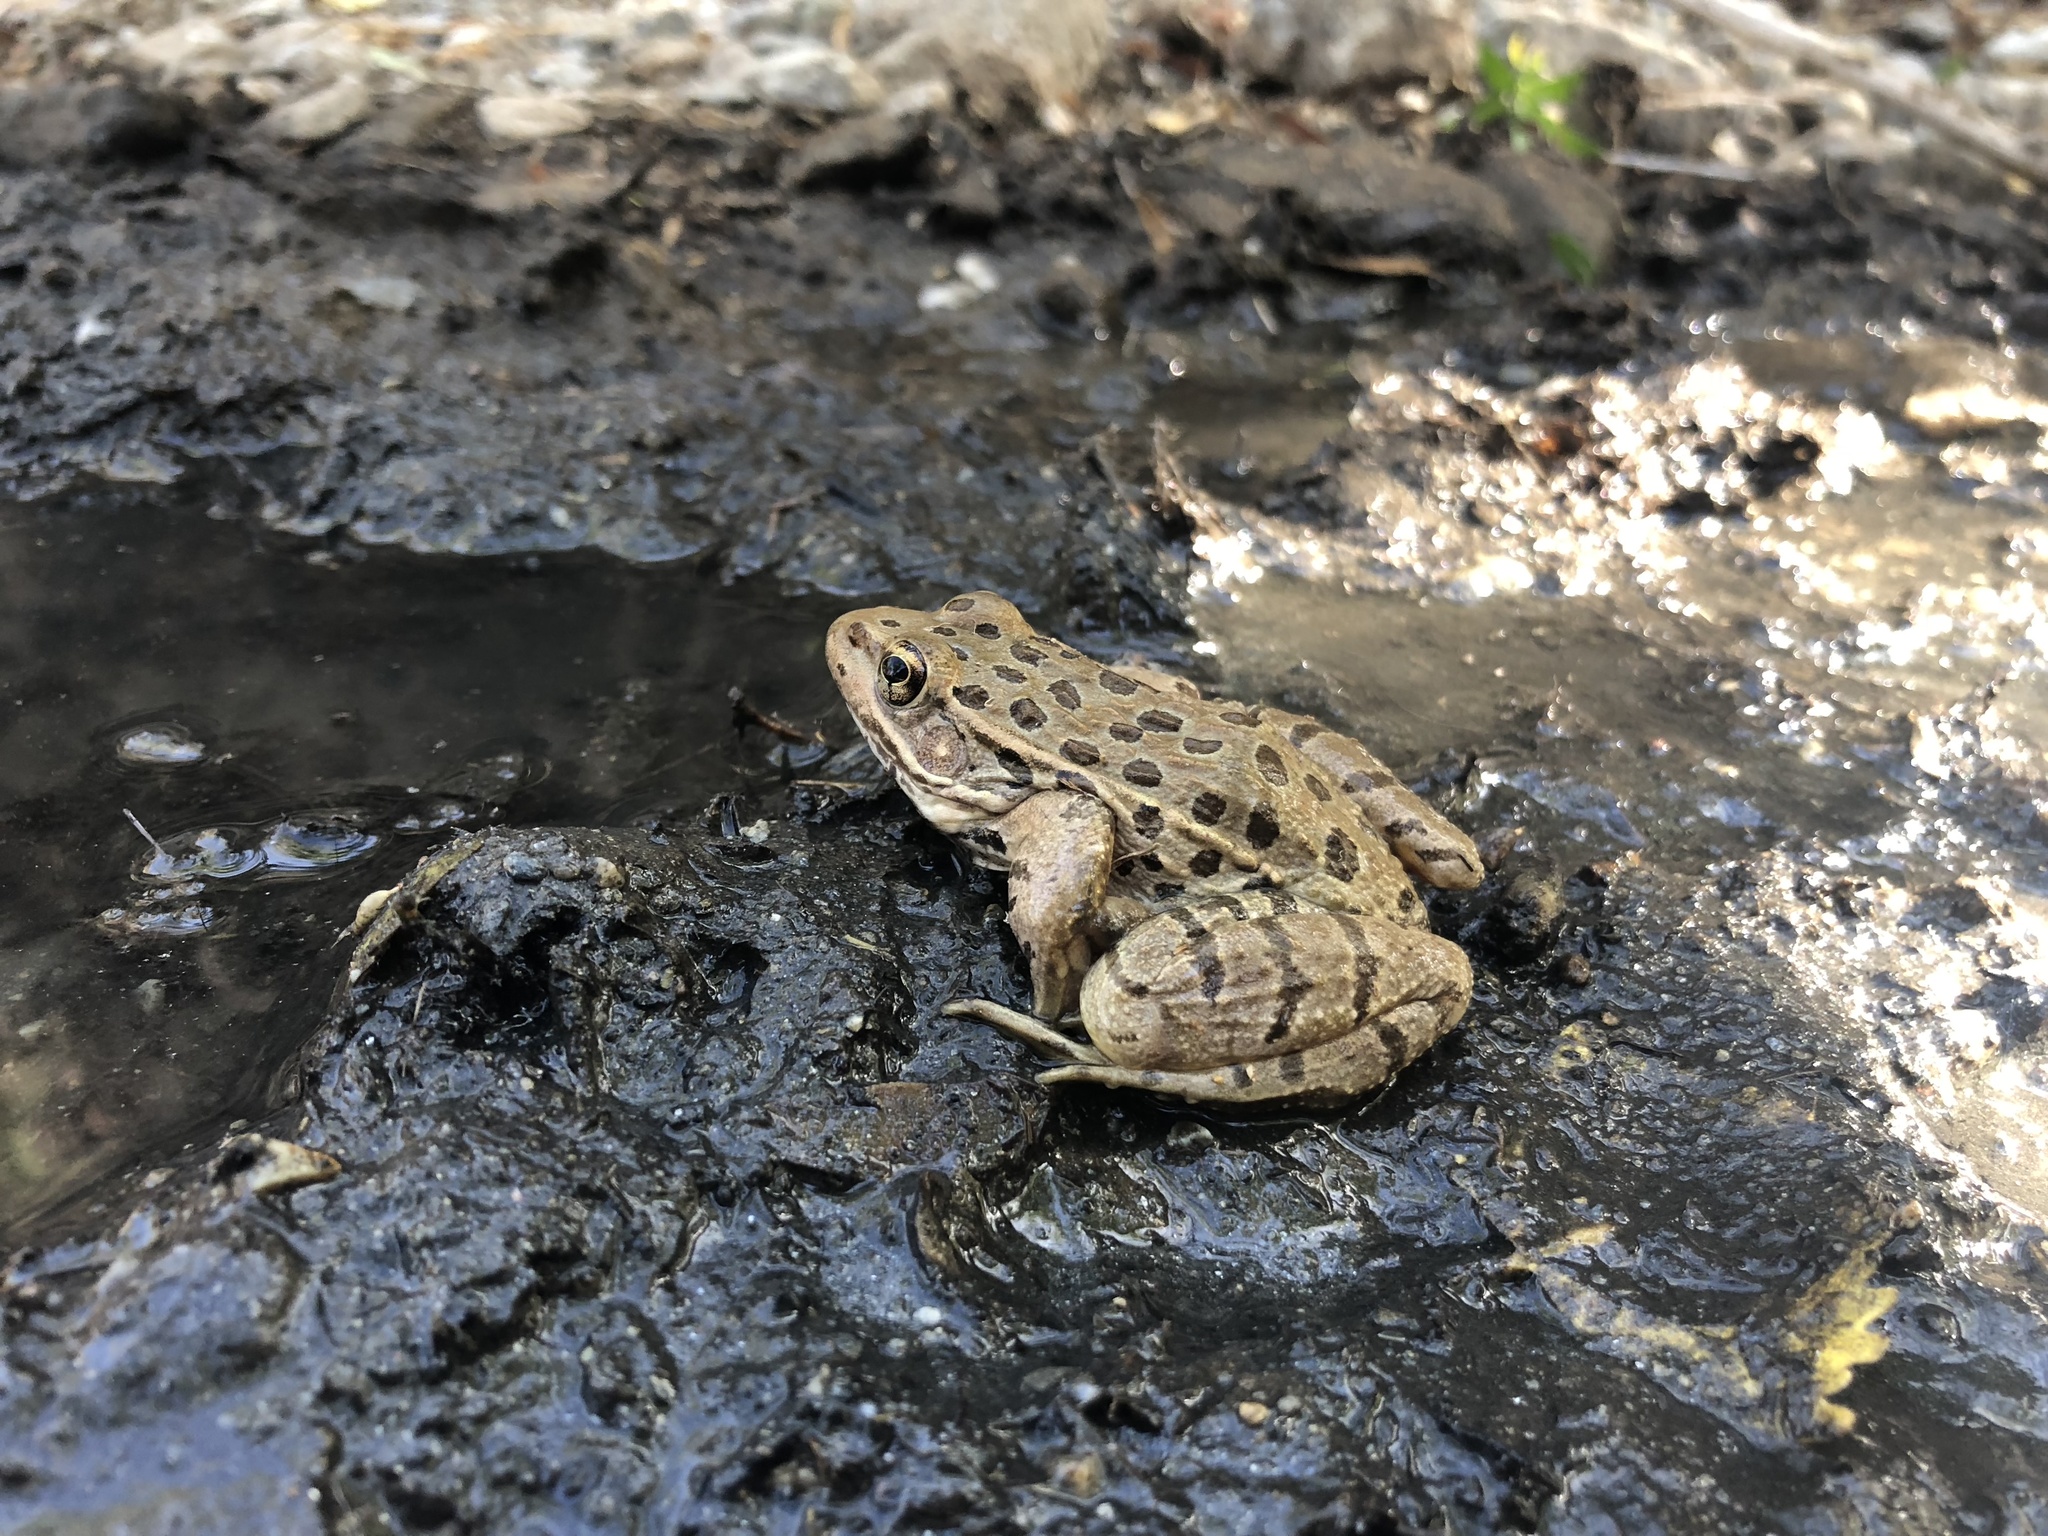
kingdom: Animalia
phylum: Chordata
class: Amphibia
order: Anura
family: Ranidae
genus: Lithobates
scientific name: Lithobates yavapaiensis
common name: Lowland leopard frog
